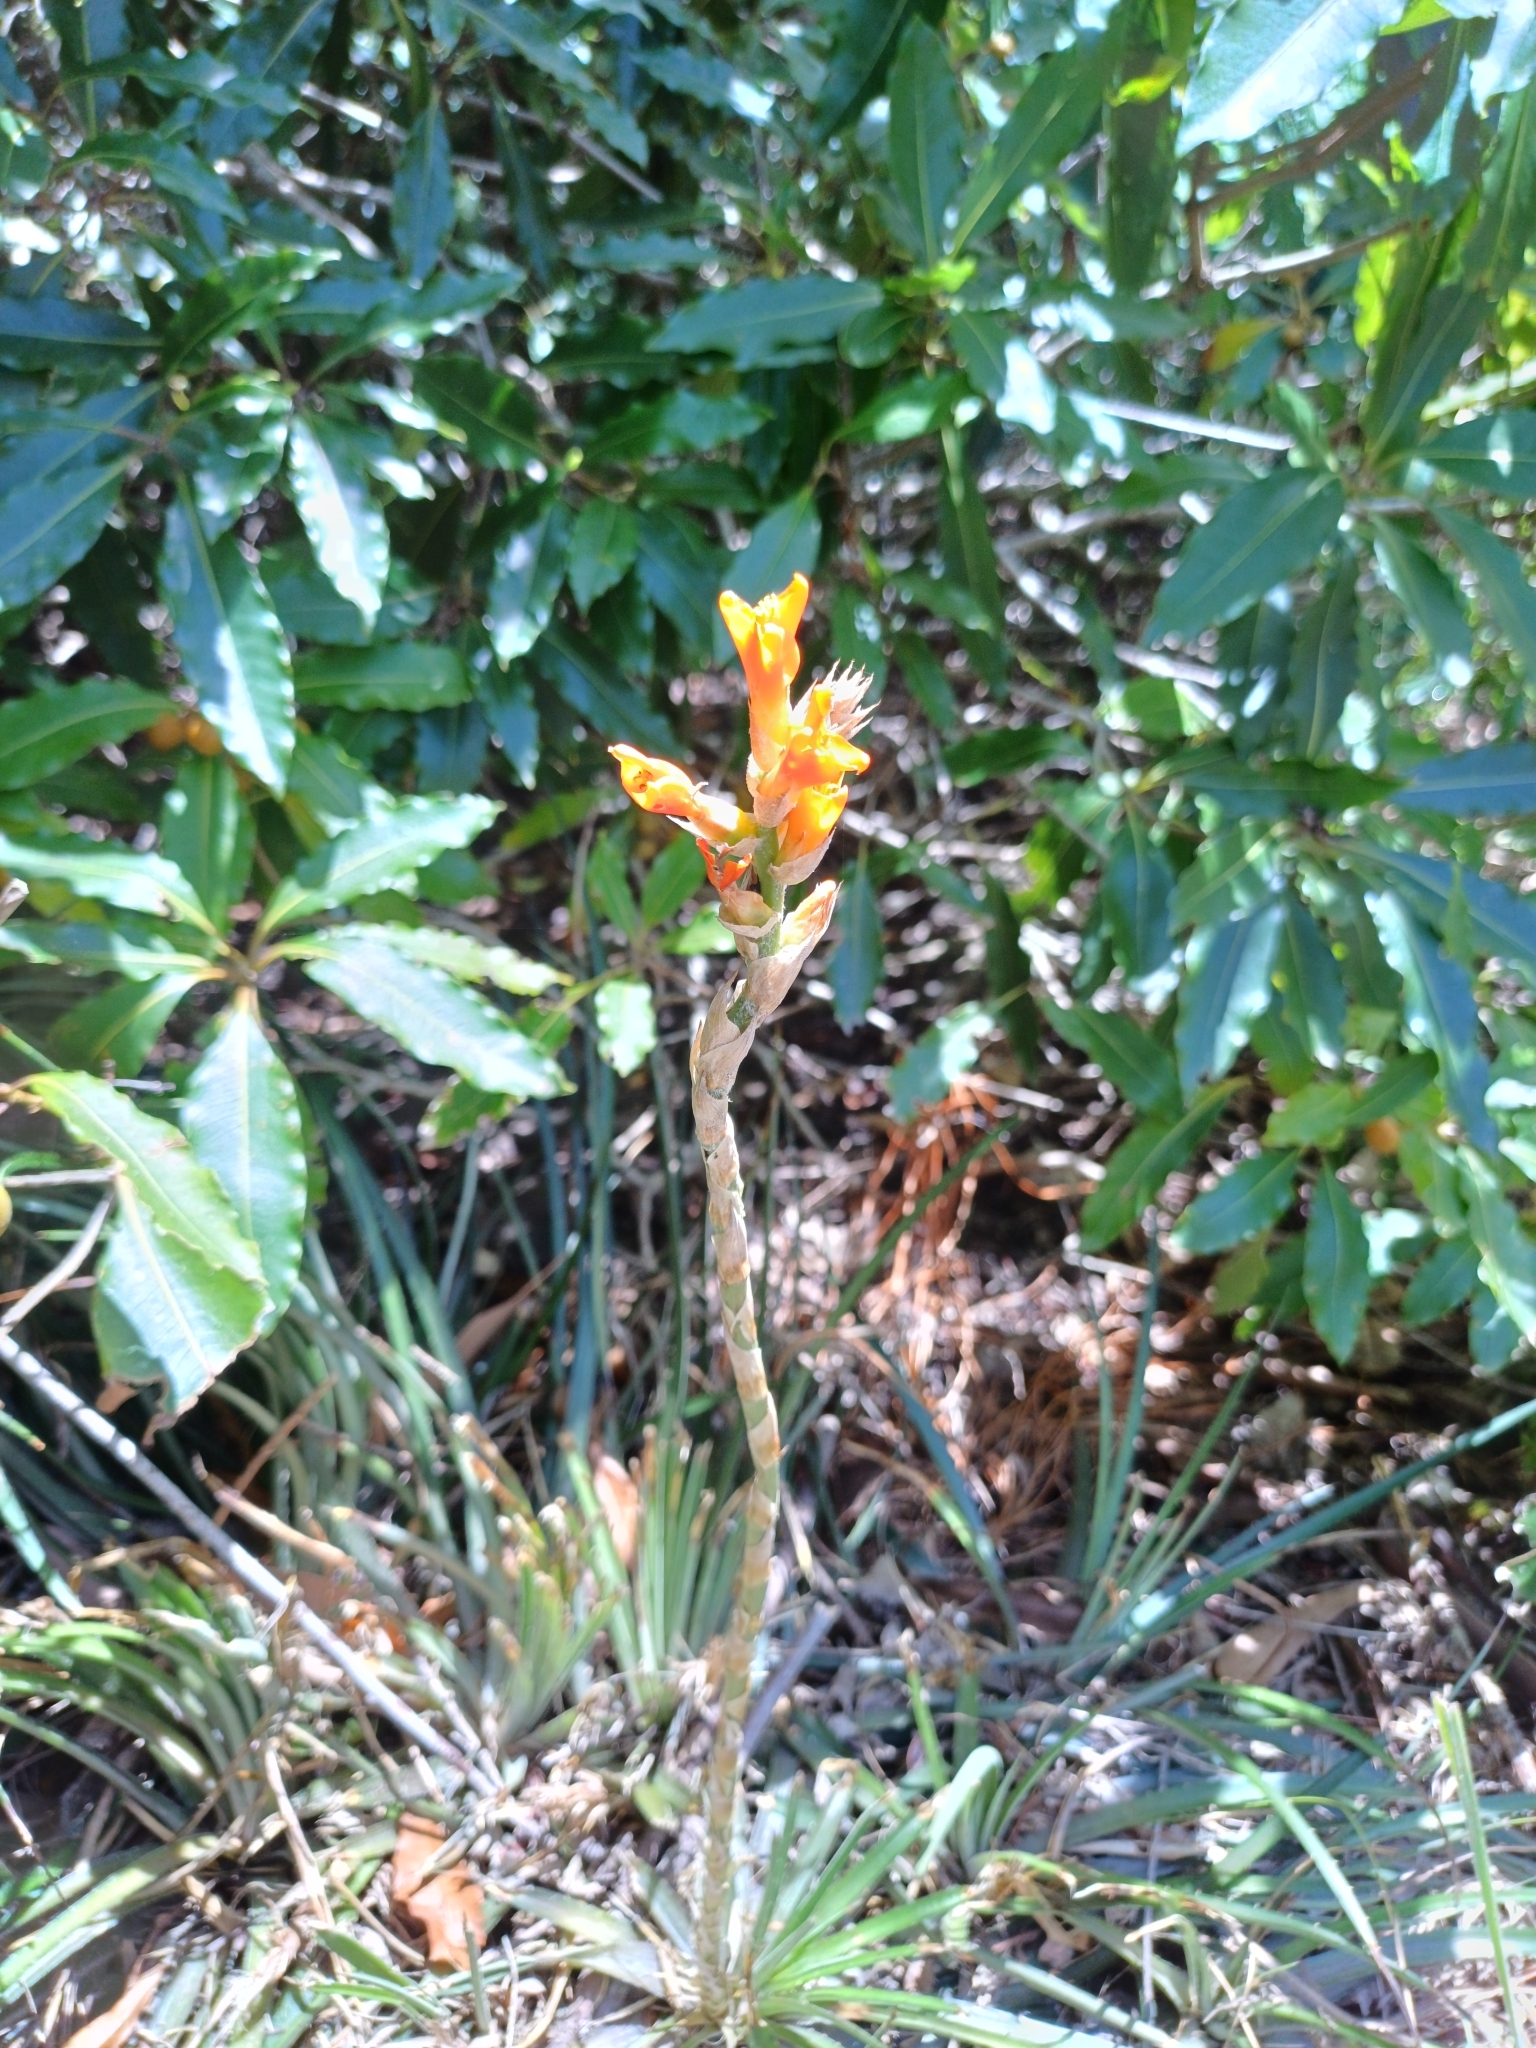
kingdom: Plantae
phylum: Tracheophyta
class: Liliopsida
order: Poales
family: Bromeliaceae
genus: Dyckia
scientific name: Dyckia remotiflora
